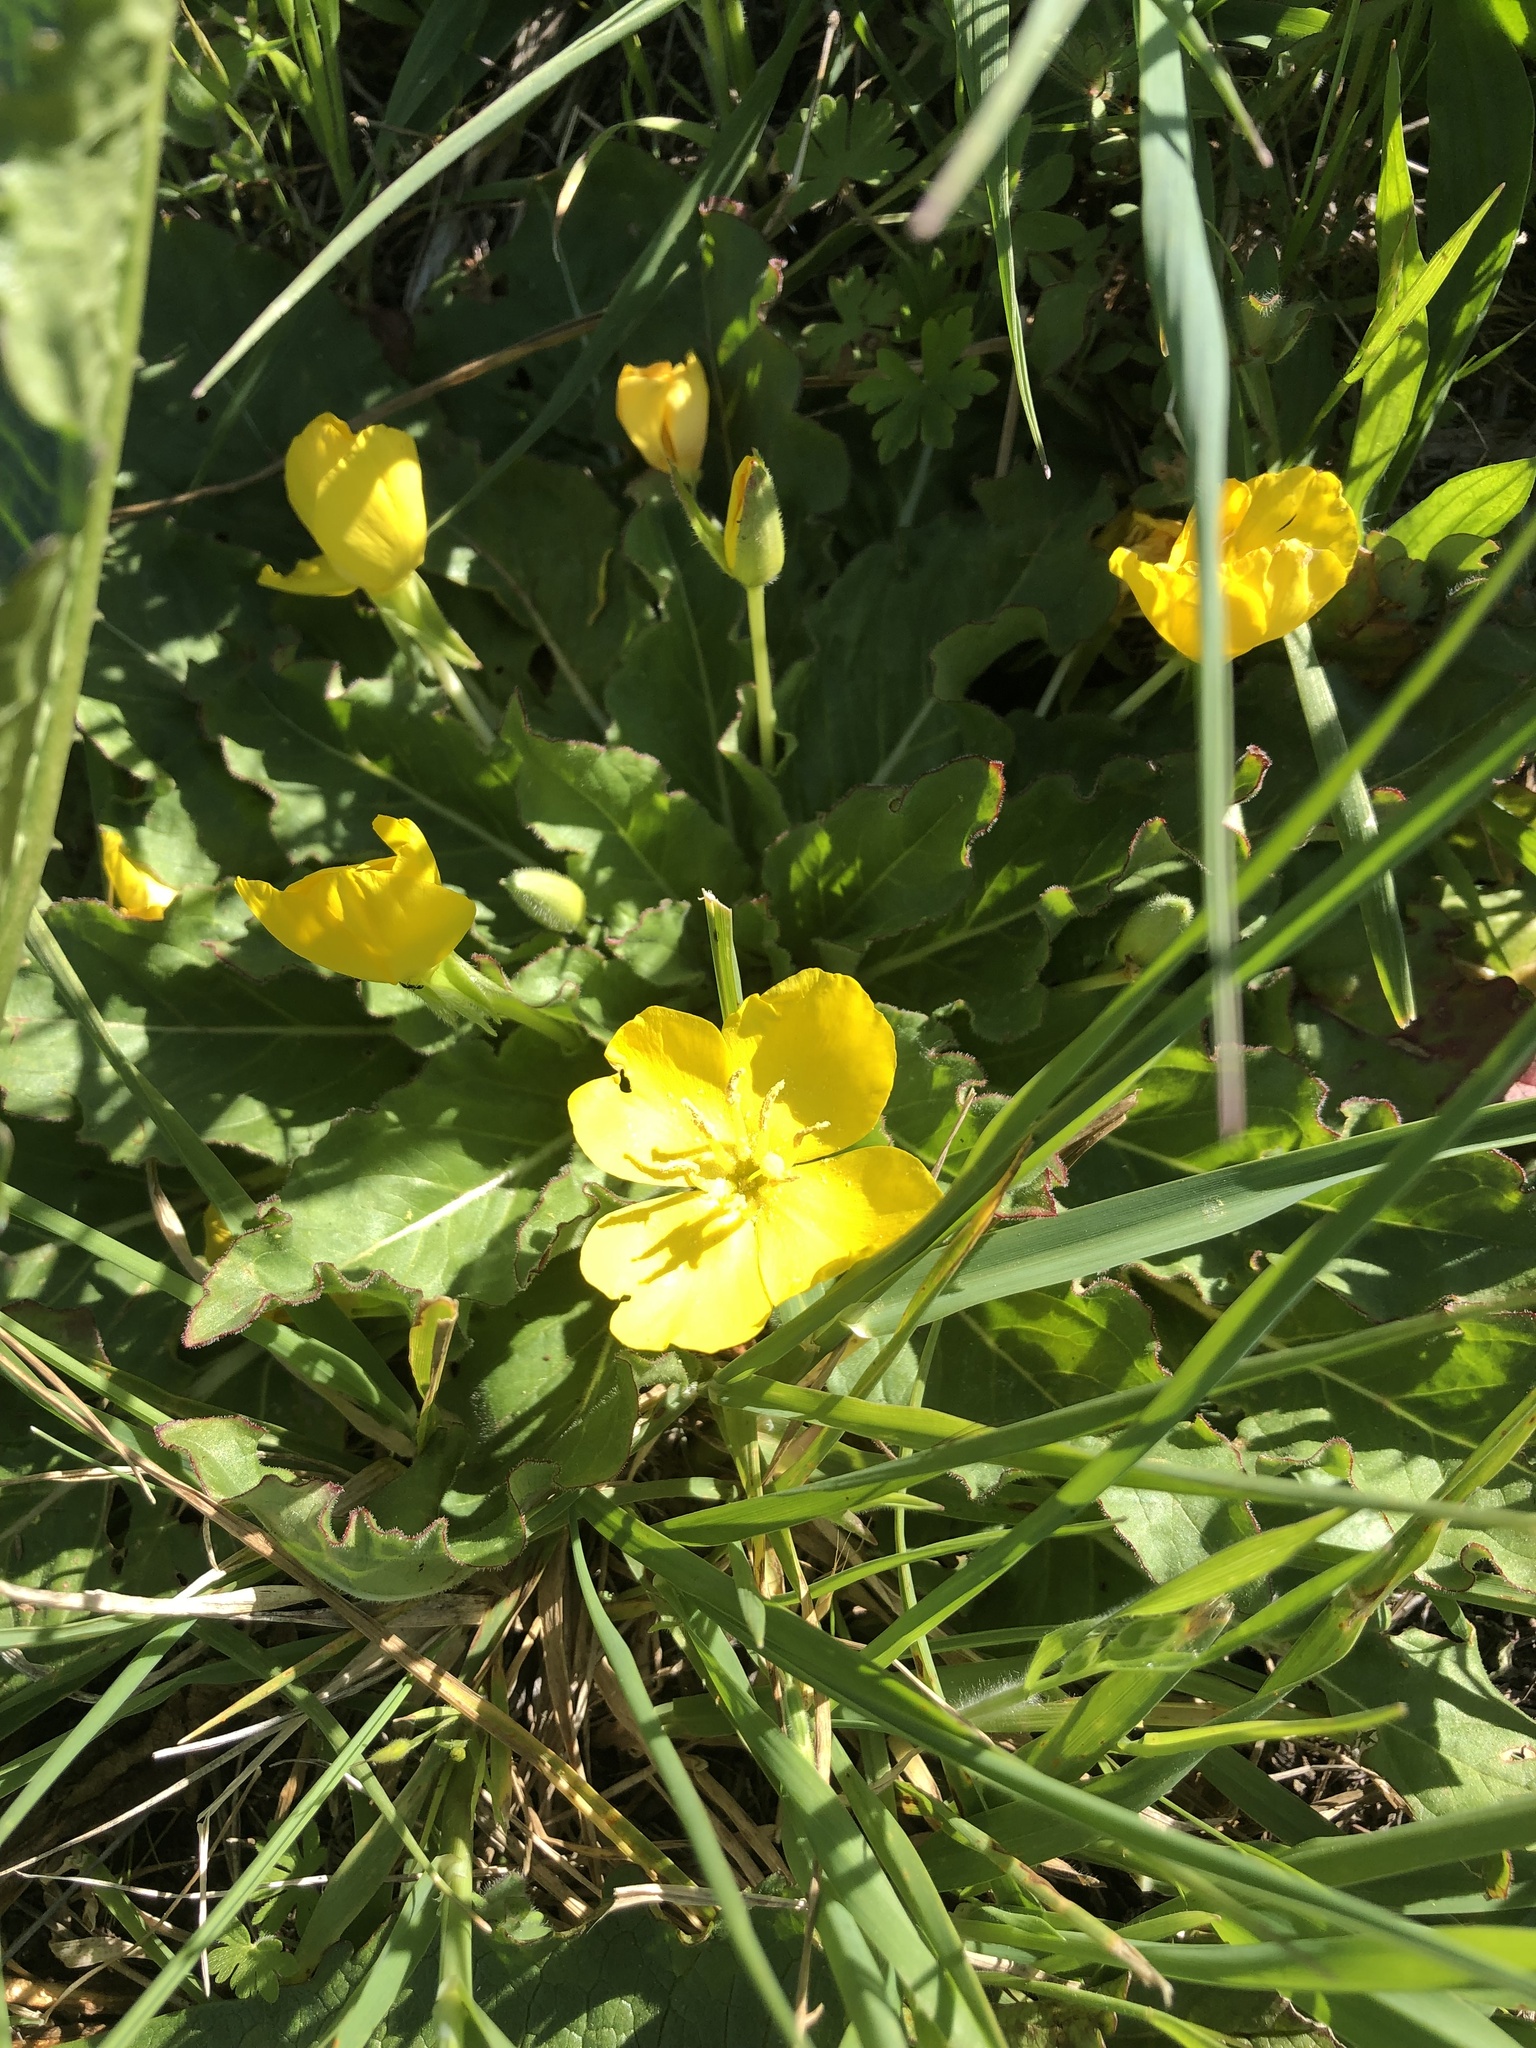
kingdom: Plantae
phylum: Tracheophyta
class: Magnoliopsida
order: Myrtales
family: Onagraceae
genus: Taraxia
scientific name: Taraxia ovata
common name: Goldeneggs
